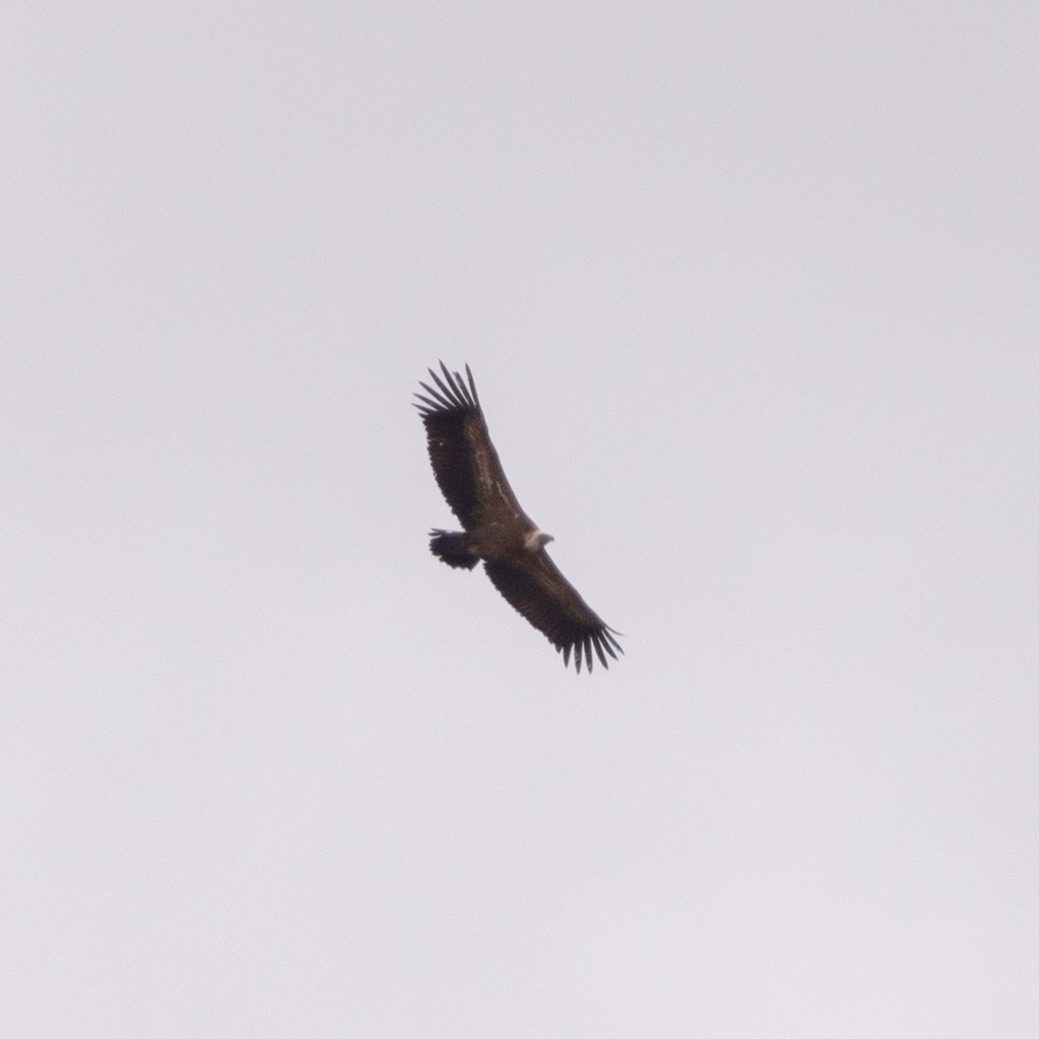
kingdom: Animalia
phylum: Chordata
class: Aves
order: Accipitriformes
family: Accipitridae
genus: Gyps
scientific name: Gyps fulvus
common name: Griffon vulture
